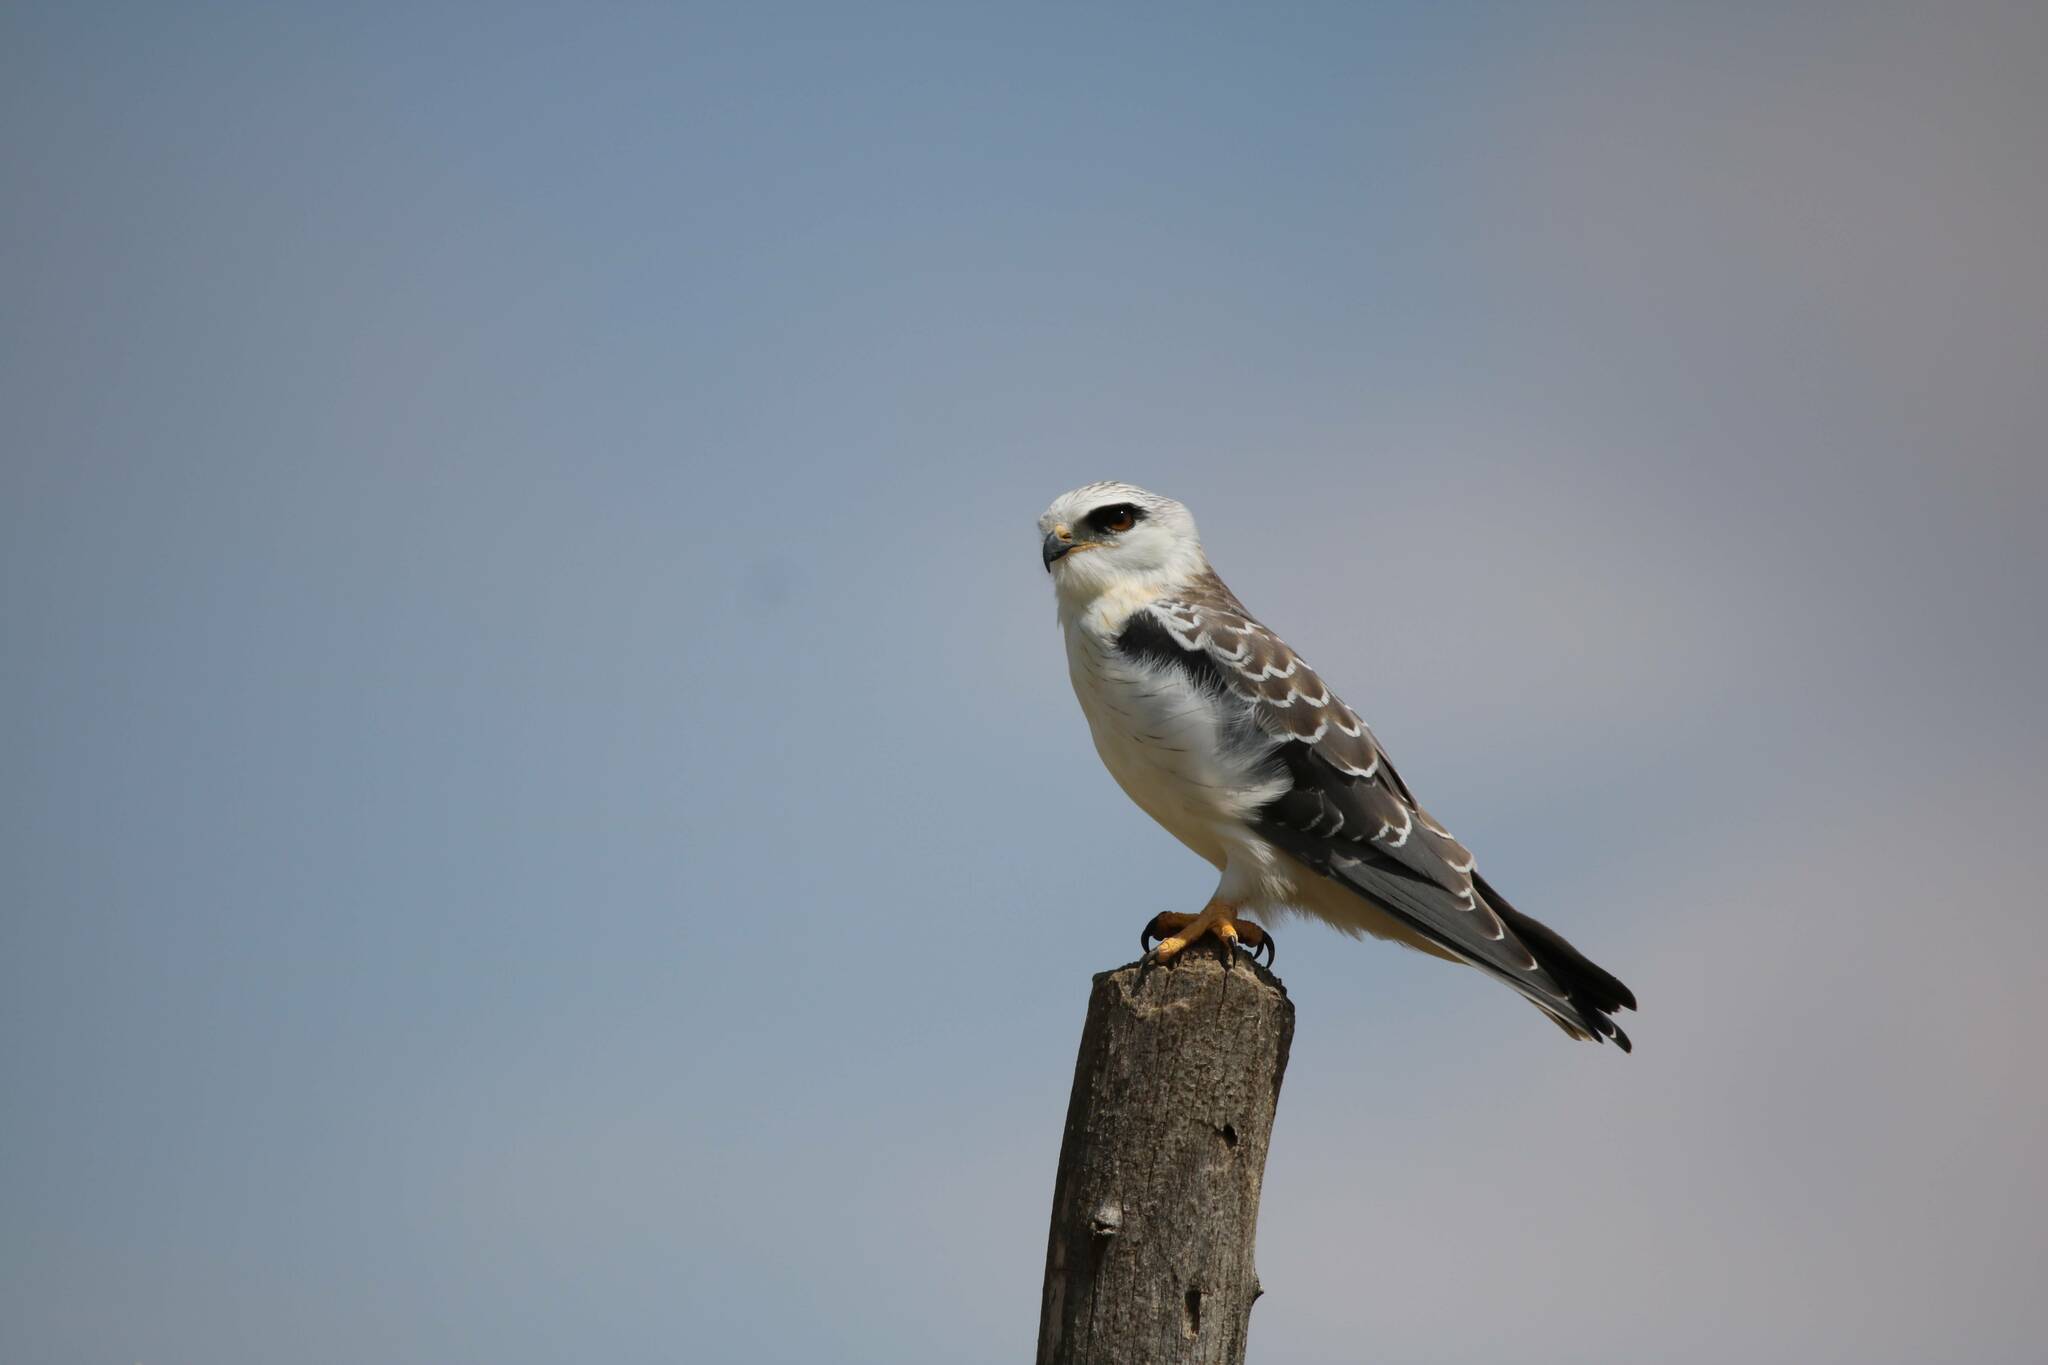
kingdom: Animalia
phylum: Chordata
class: Aves
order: Accipitriformes
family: Accipitridae
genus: Elanus
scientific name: Elanus caeruleus
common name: Black-winged kite
